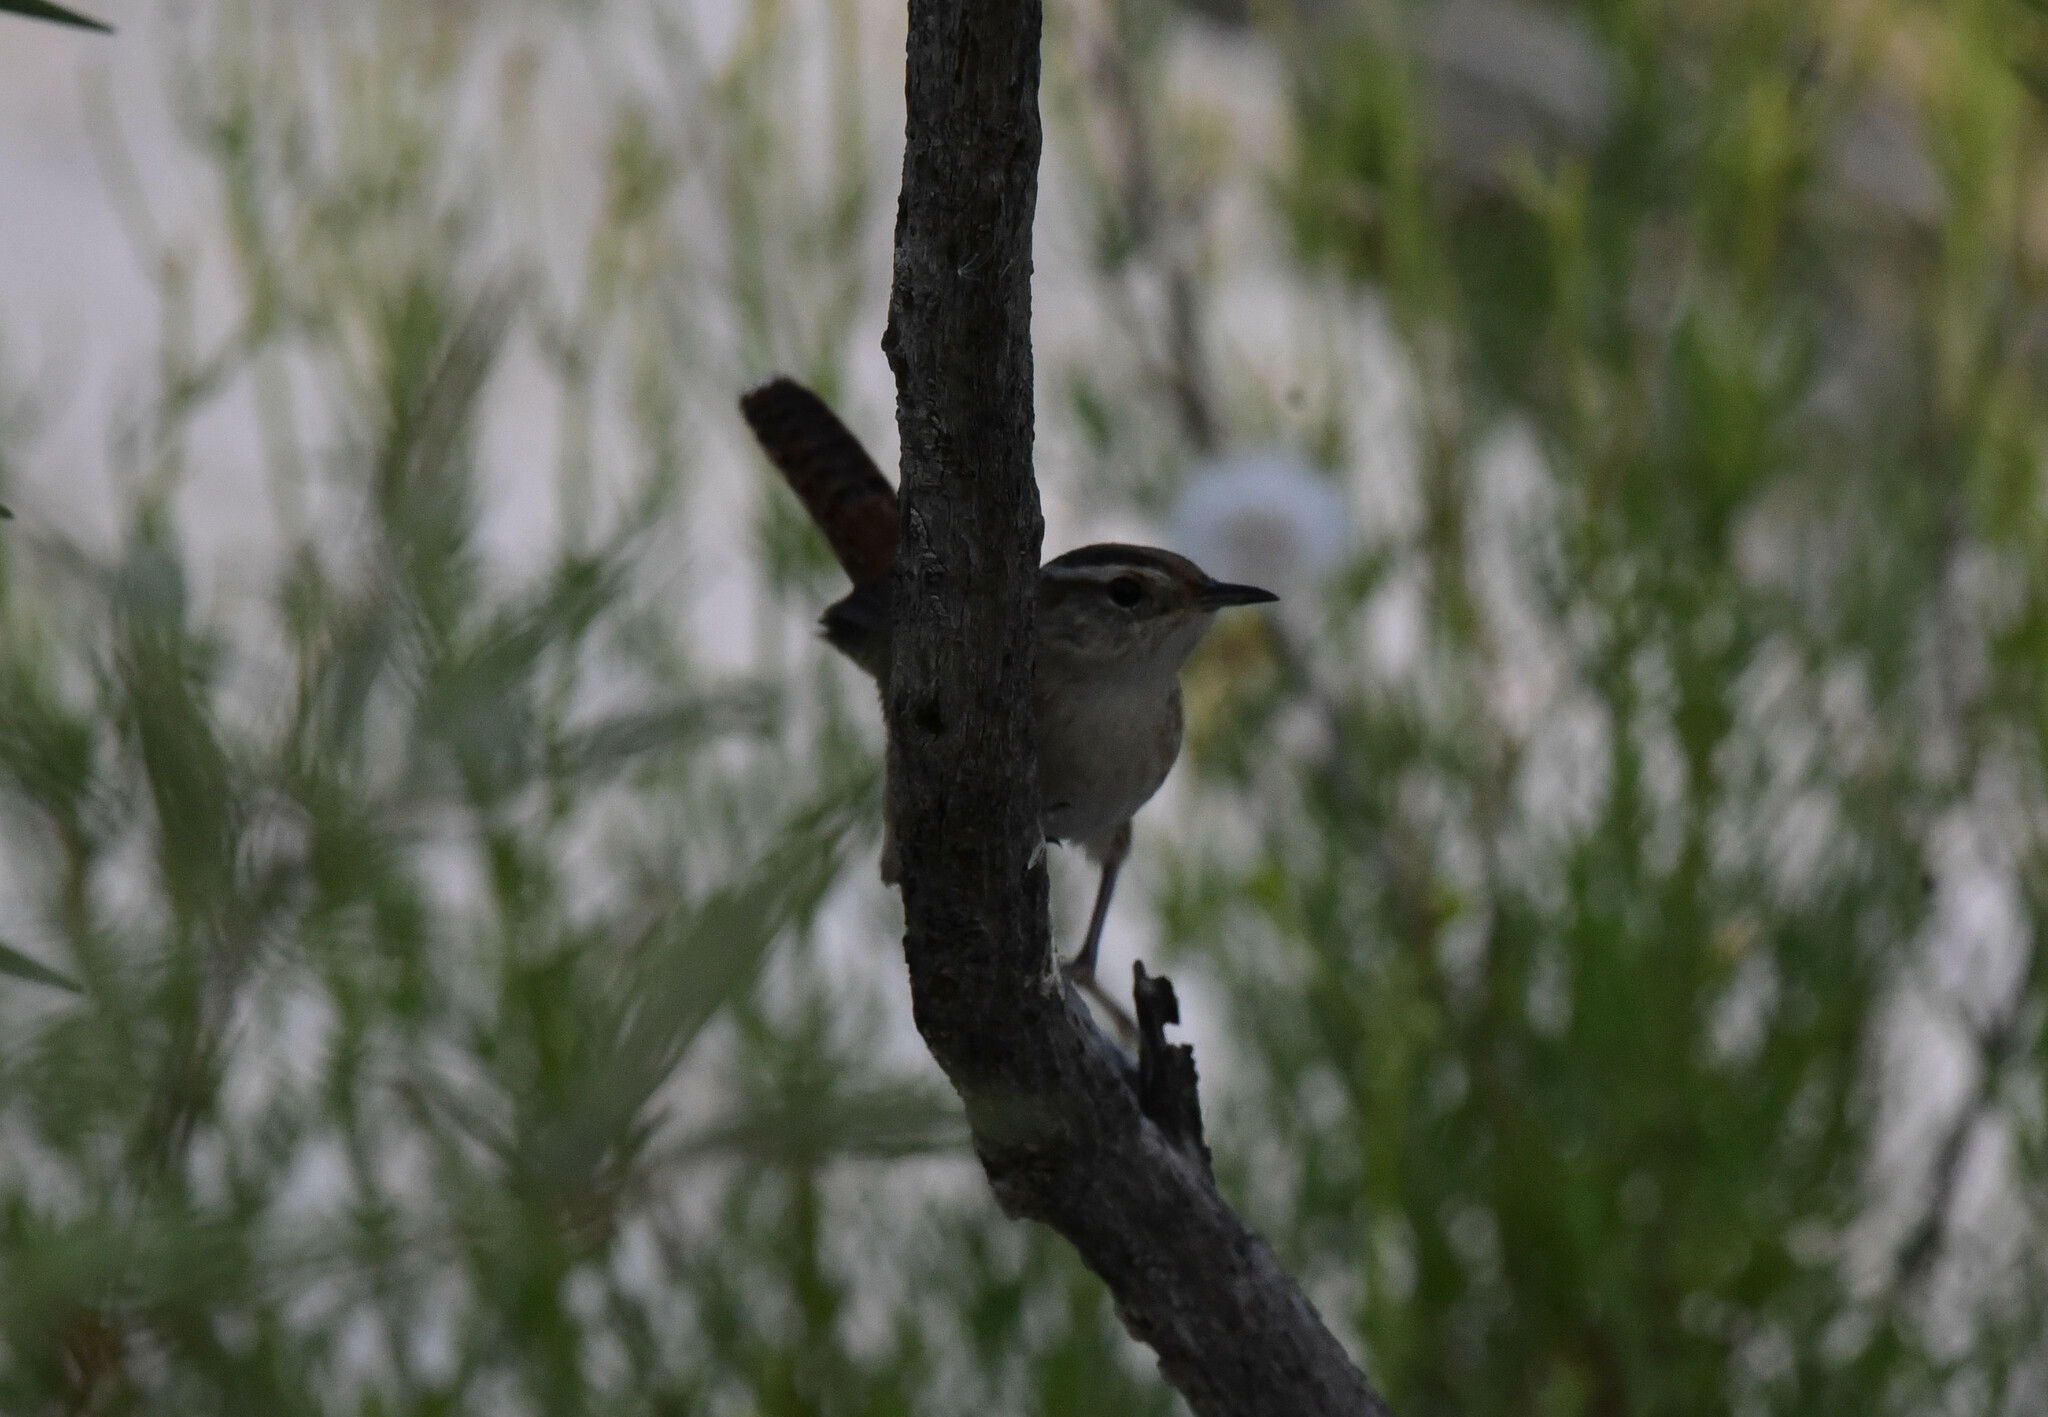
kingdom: Animalia
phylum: Chordata
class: Aves
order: Passeriformes
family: Troglodytidae
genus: Cistothorus
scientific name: Cistothorus palustris
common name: Marsh wren
